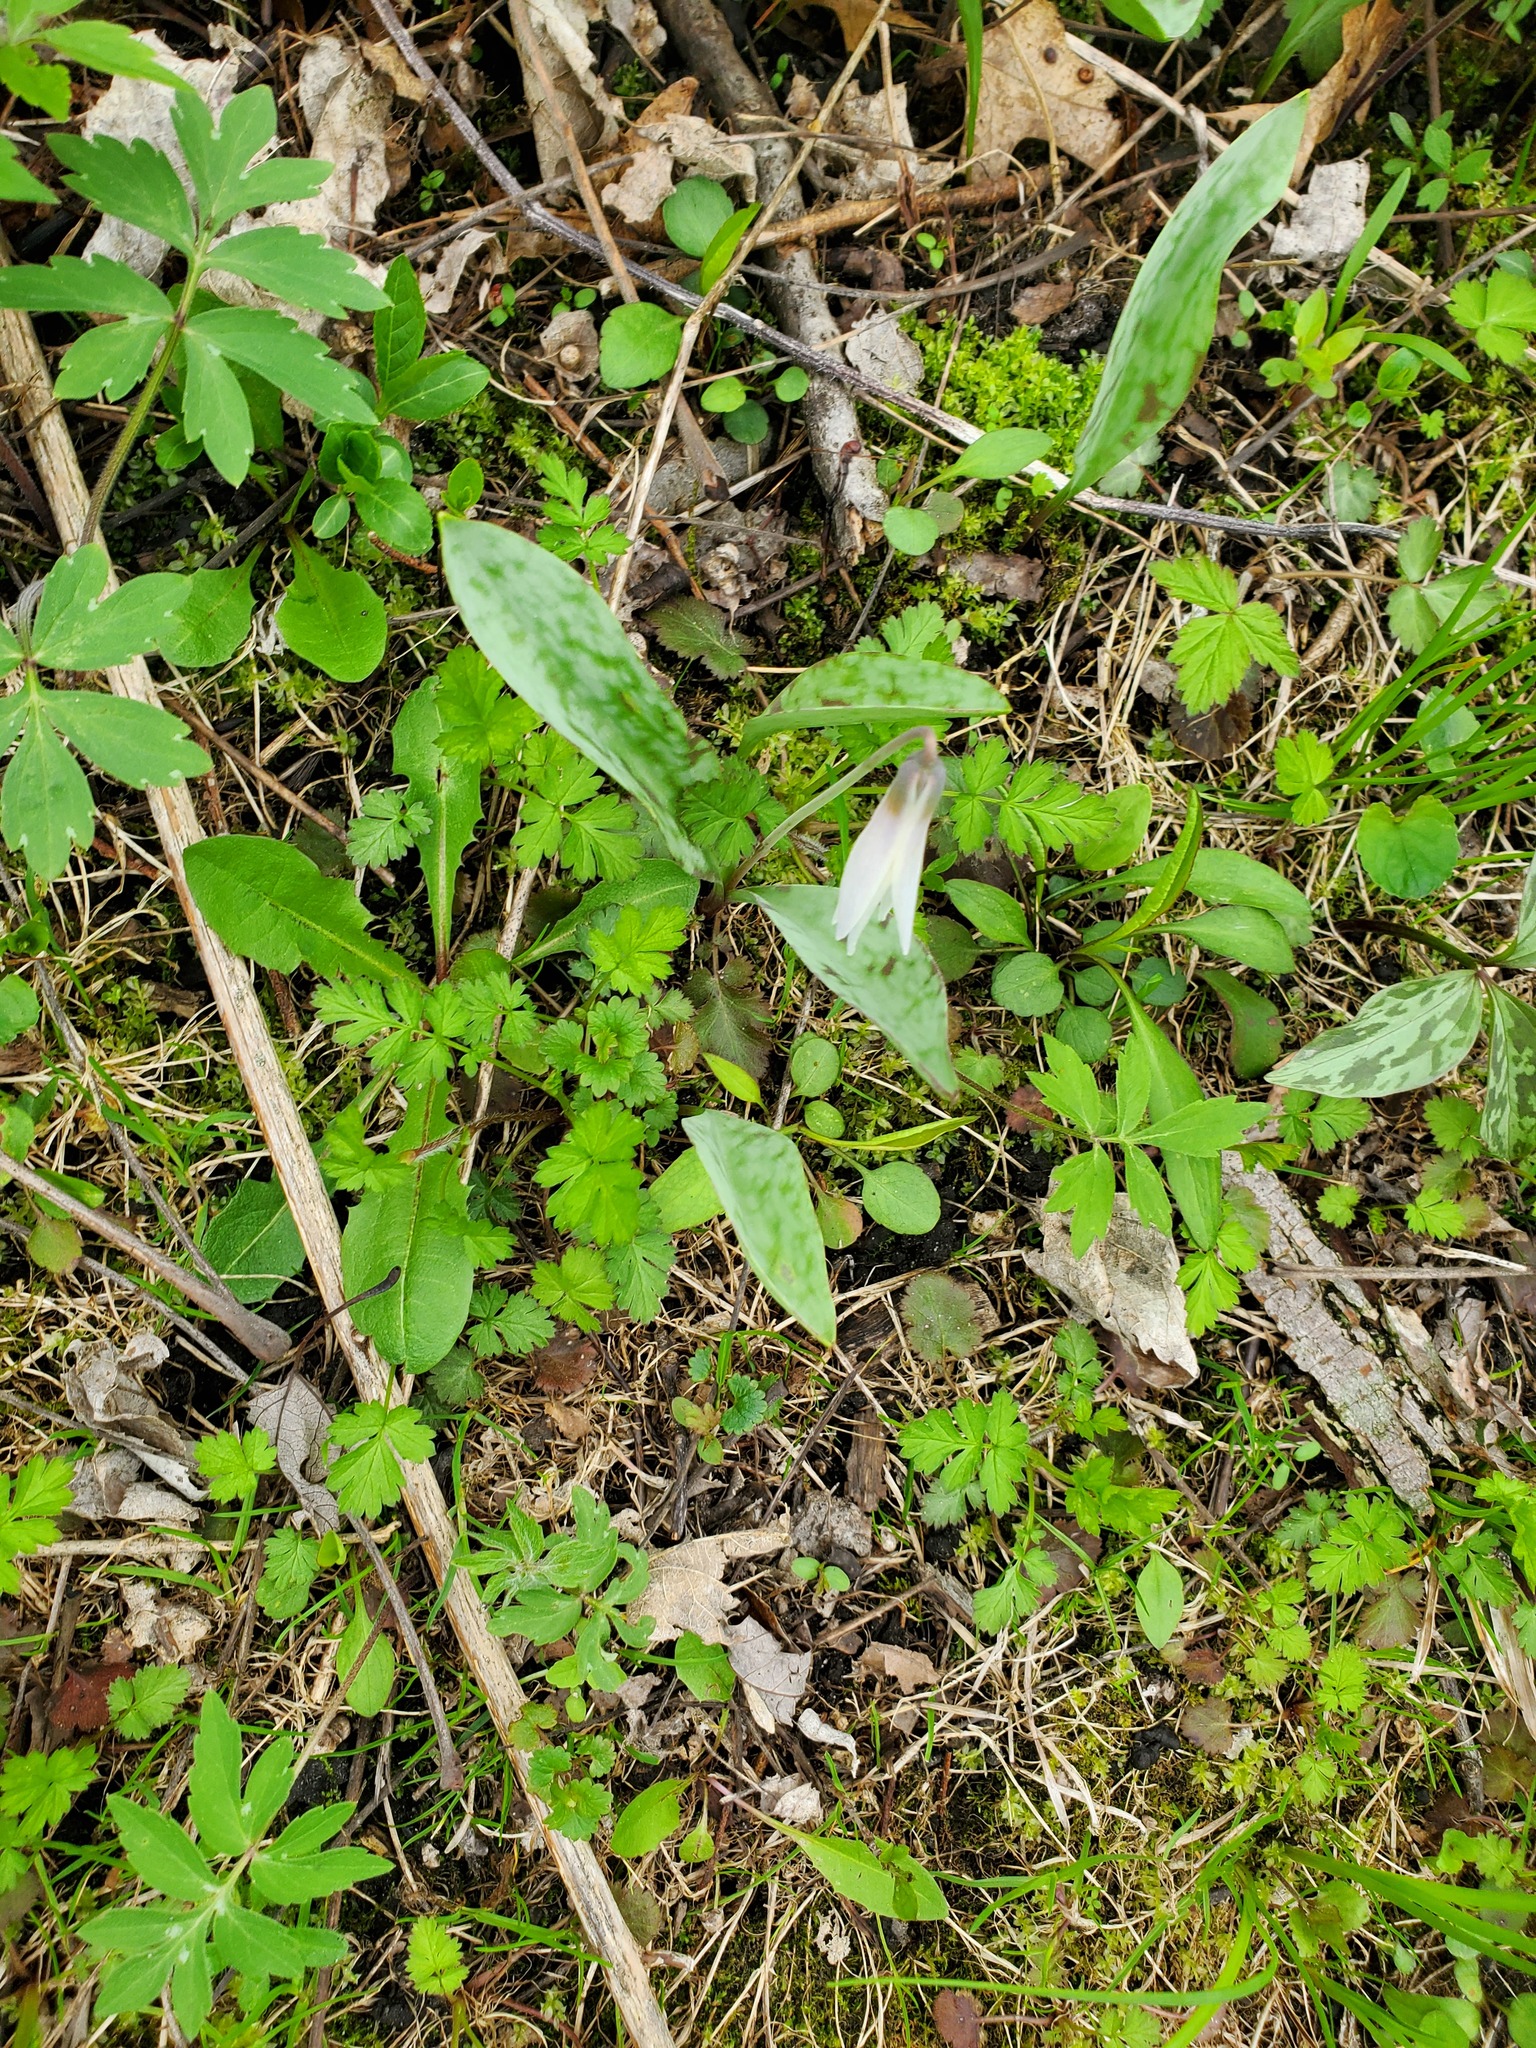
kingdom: Plantae
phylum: Tracheophyta
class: Liliopsida
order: Liliales
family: Liliaceae
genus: Erythronium
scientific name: Erythronium albidum
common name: White trout-lily
